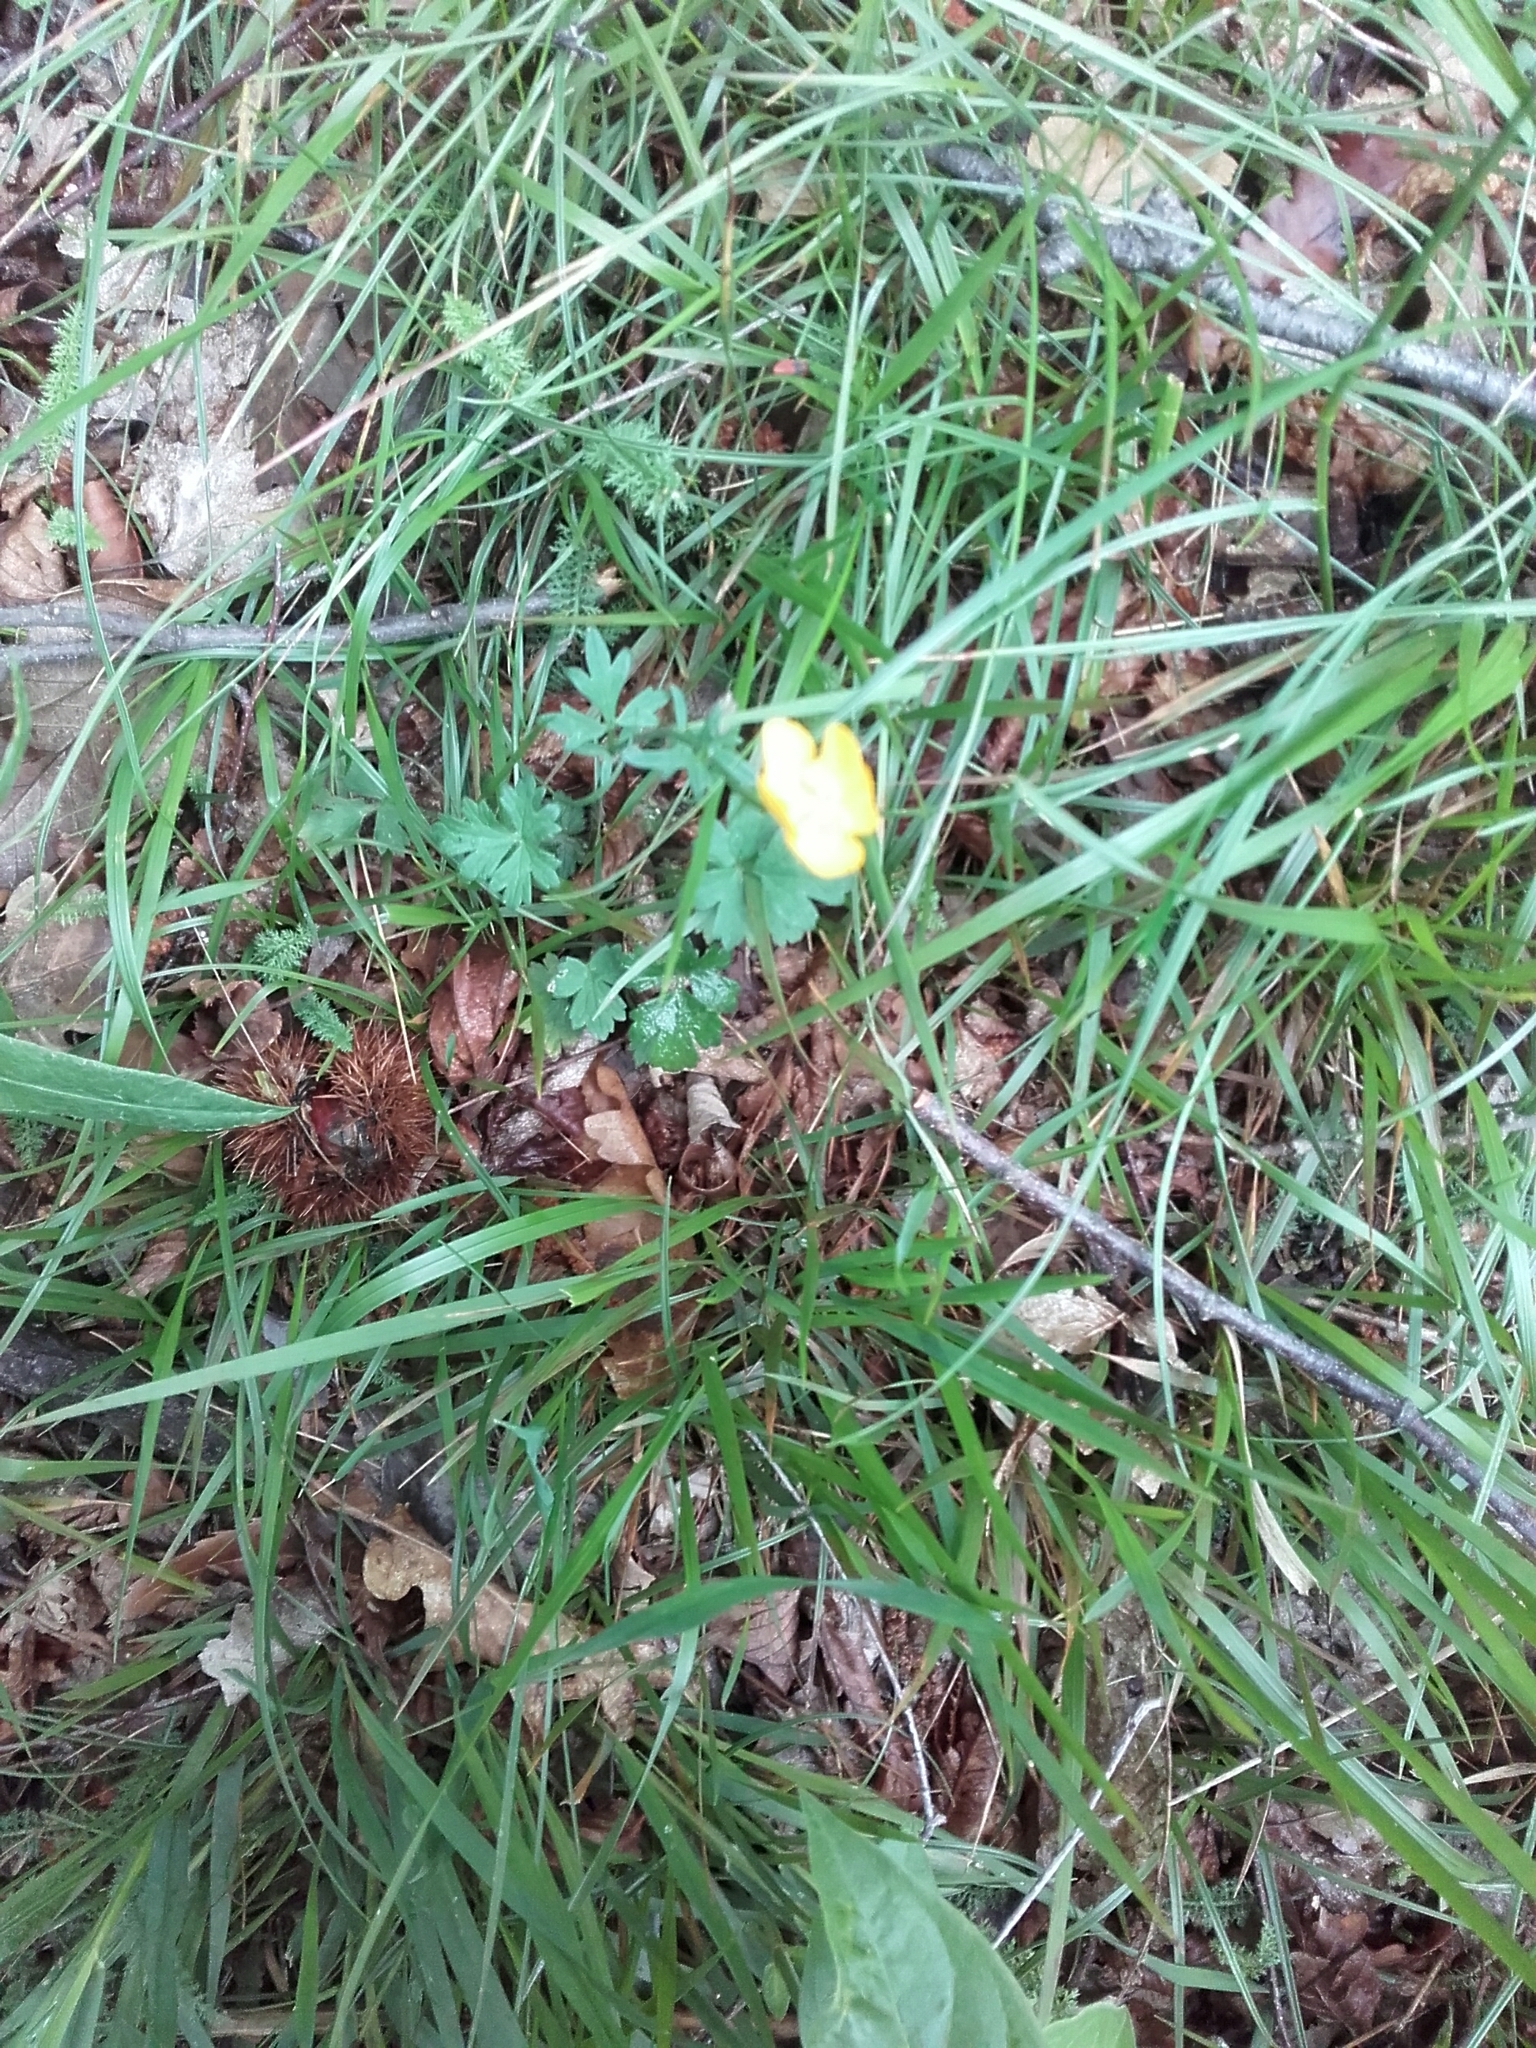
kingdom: Plantae
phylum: Tracheophyta
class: Magnoliopsida
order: Ranunculales
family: Ranunculaceae
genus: Ranunculus
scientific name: Ranunculus bulbosus
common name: Bulbous buttercup
